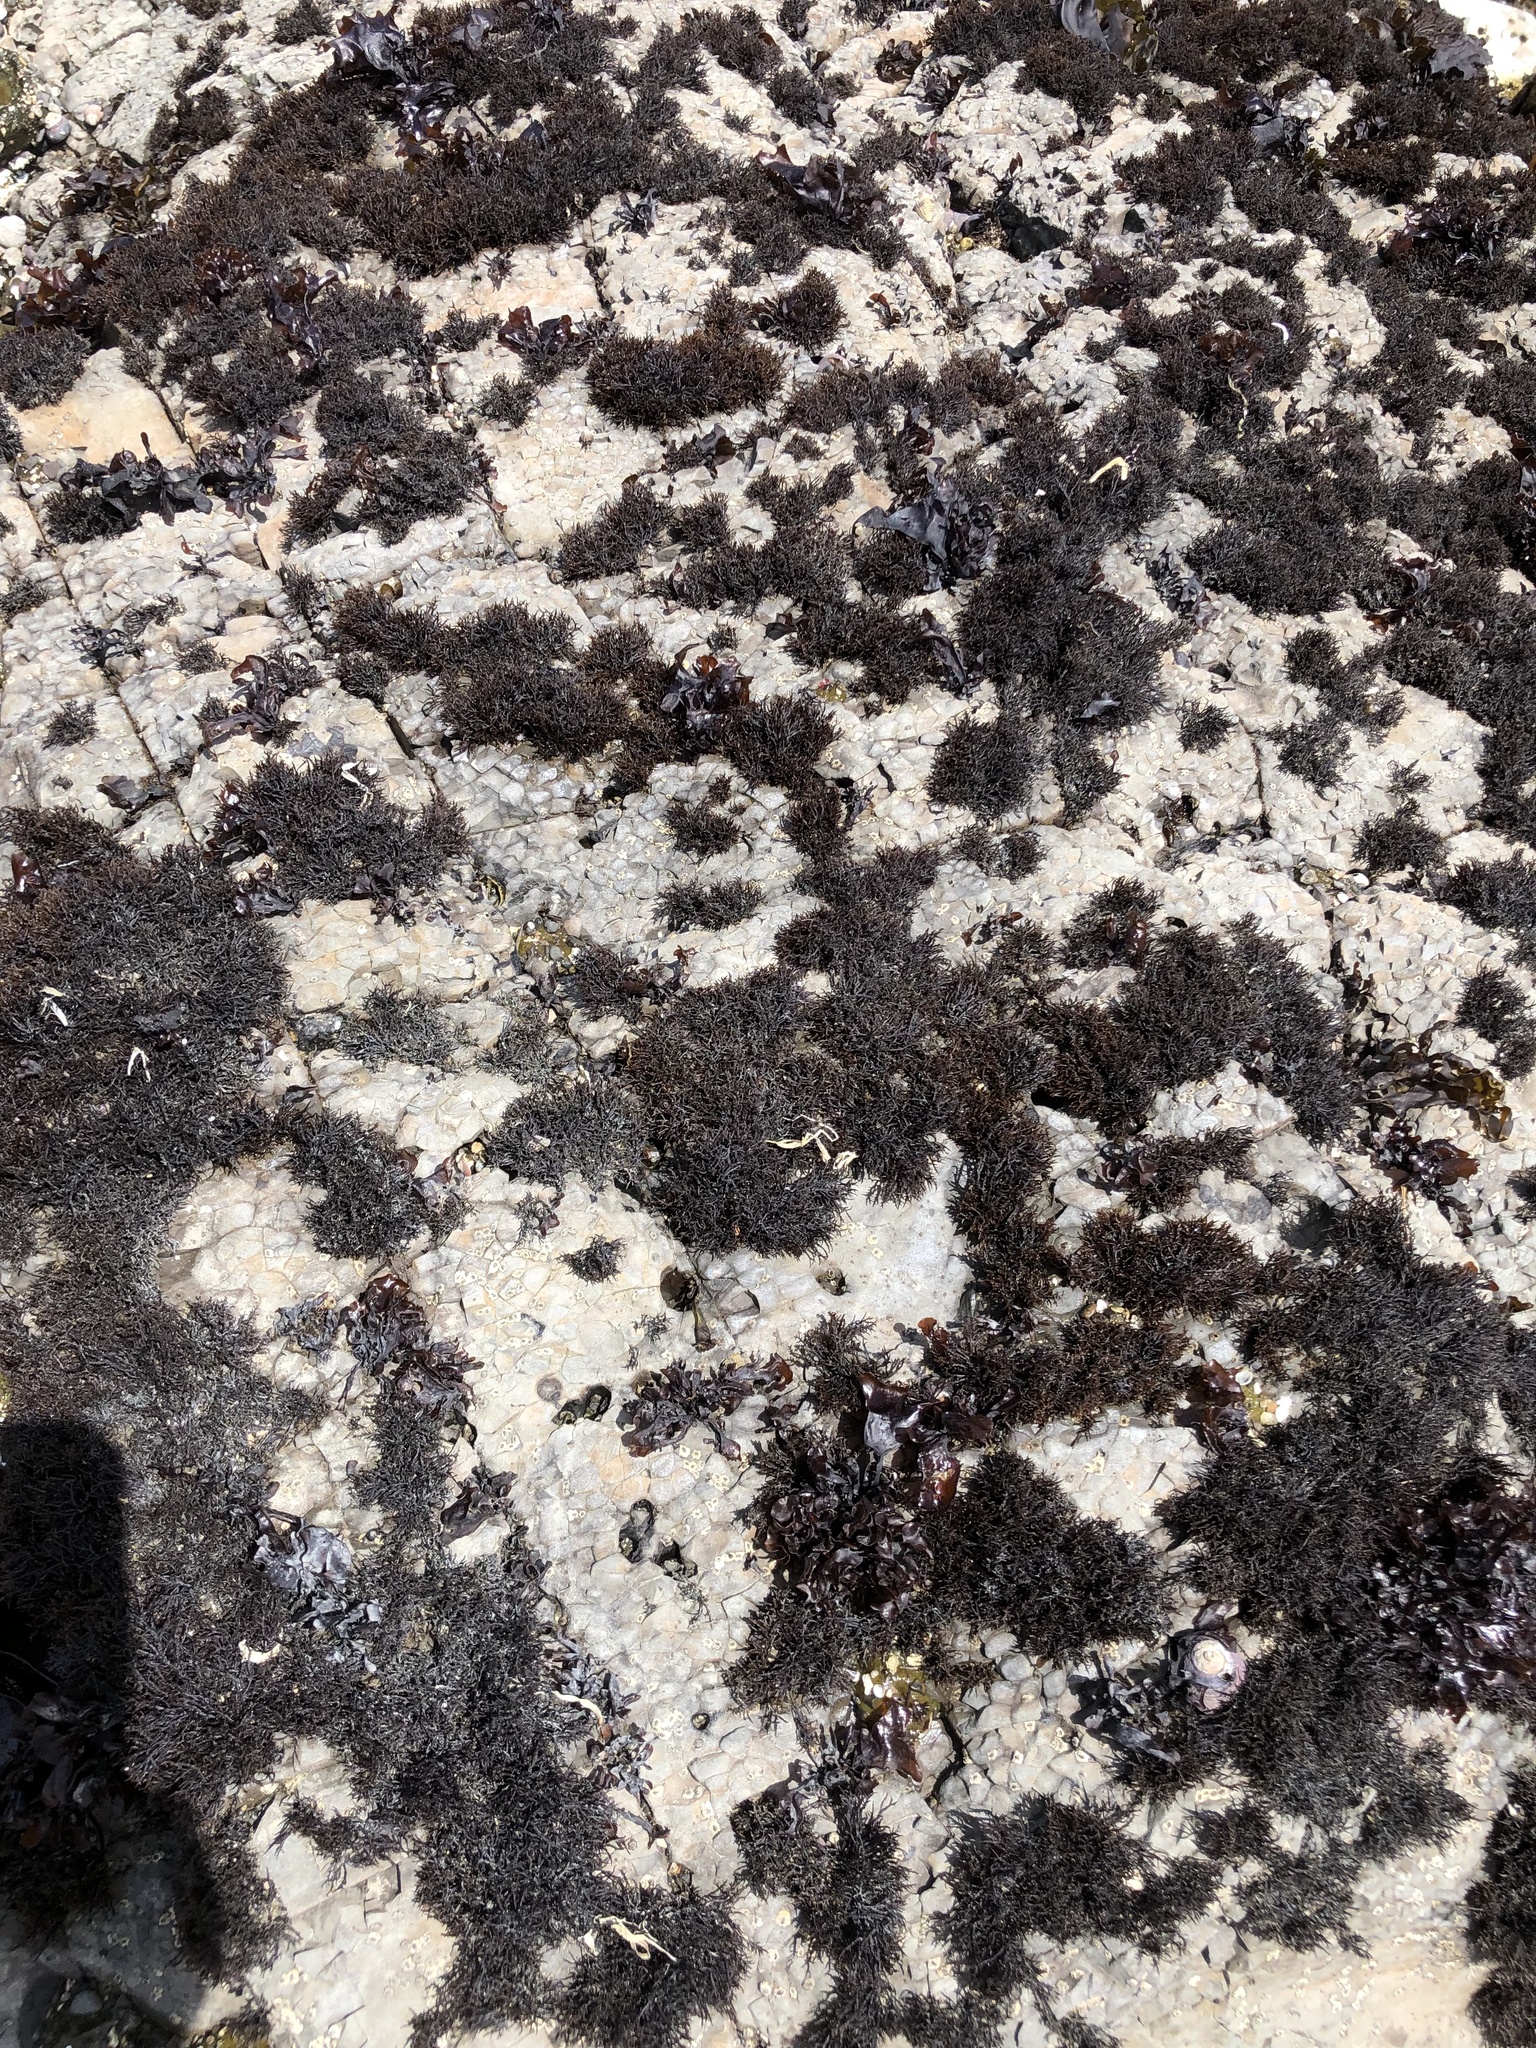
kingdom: Plantae
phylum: Rhodophyta
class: Florideophyceae
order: Gigartinales
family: Endocladiaceae
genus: Endocladia
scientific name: Endocladia muricata
